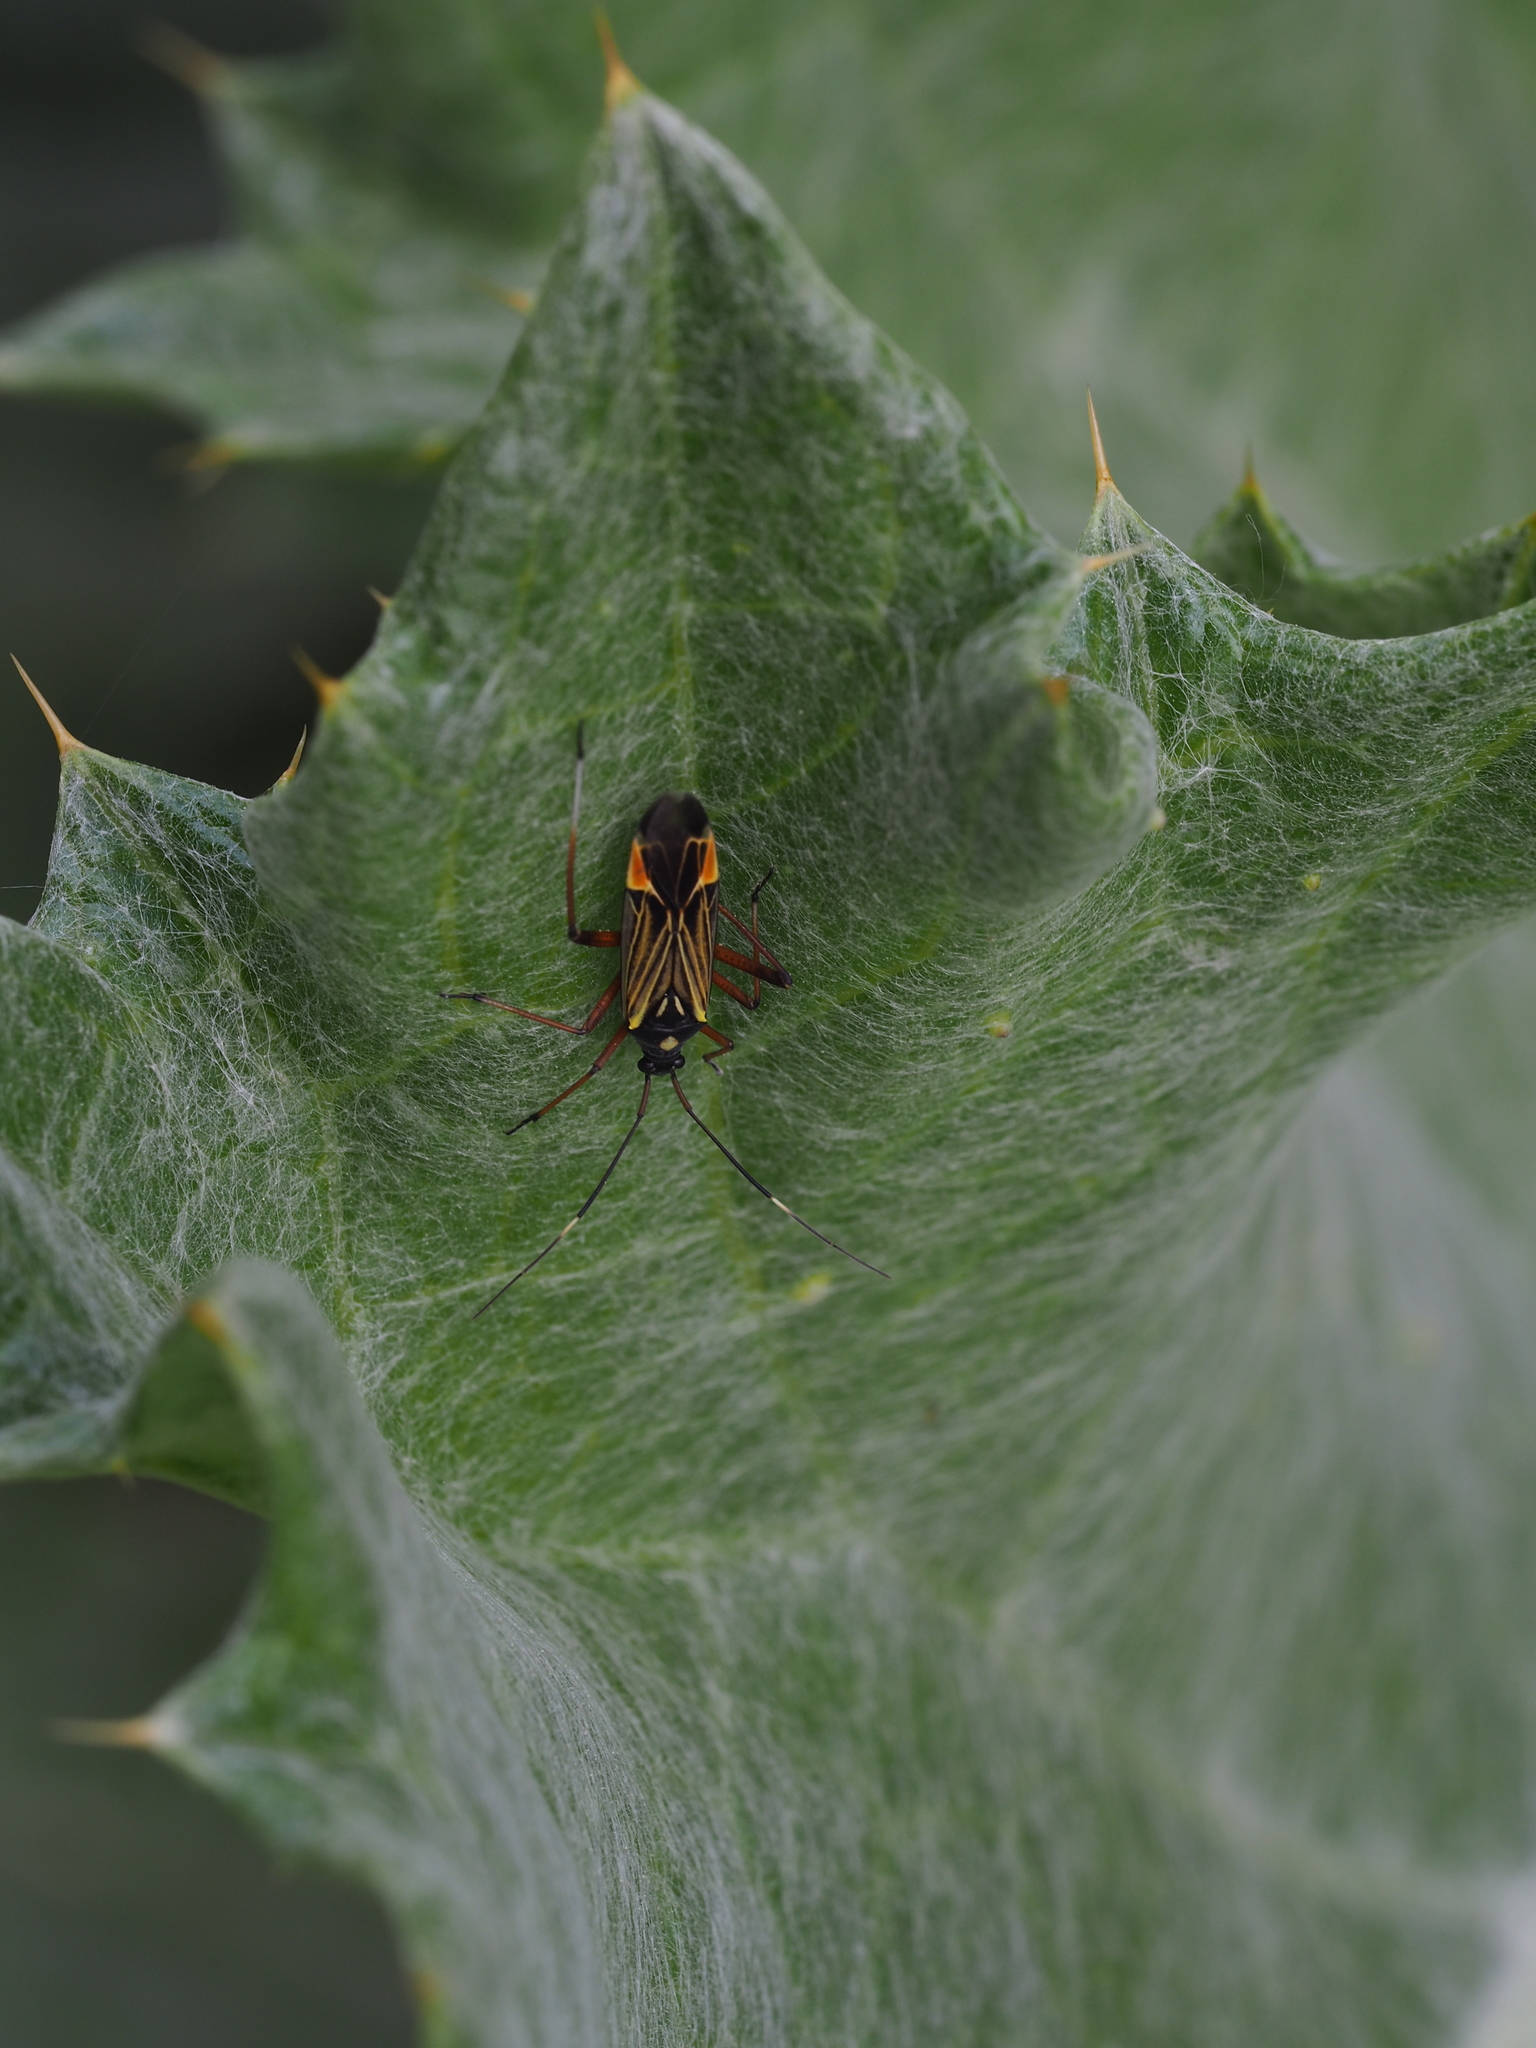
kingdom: Animalia
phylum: Arthropoda
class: Insecta
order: Hemiptera
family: Miridae
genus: Miris
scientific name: Miris striatus
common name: Fine streaked bugkin
